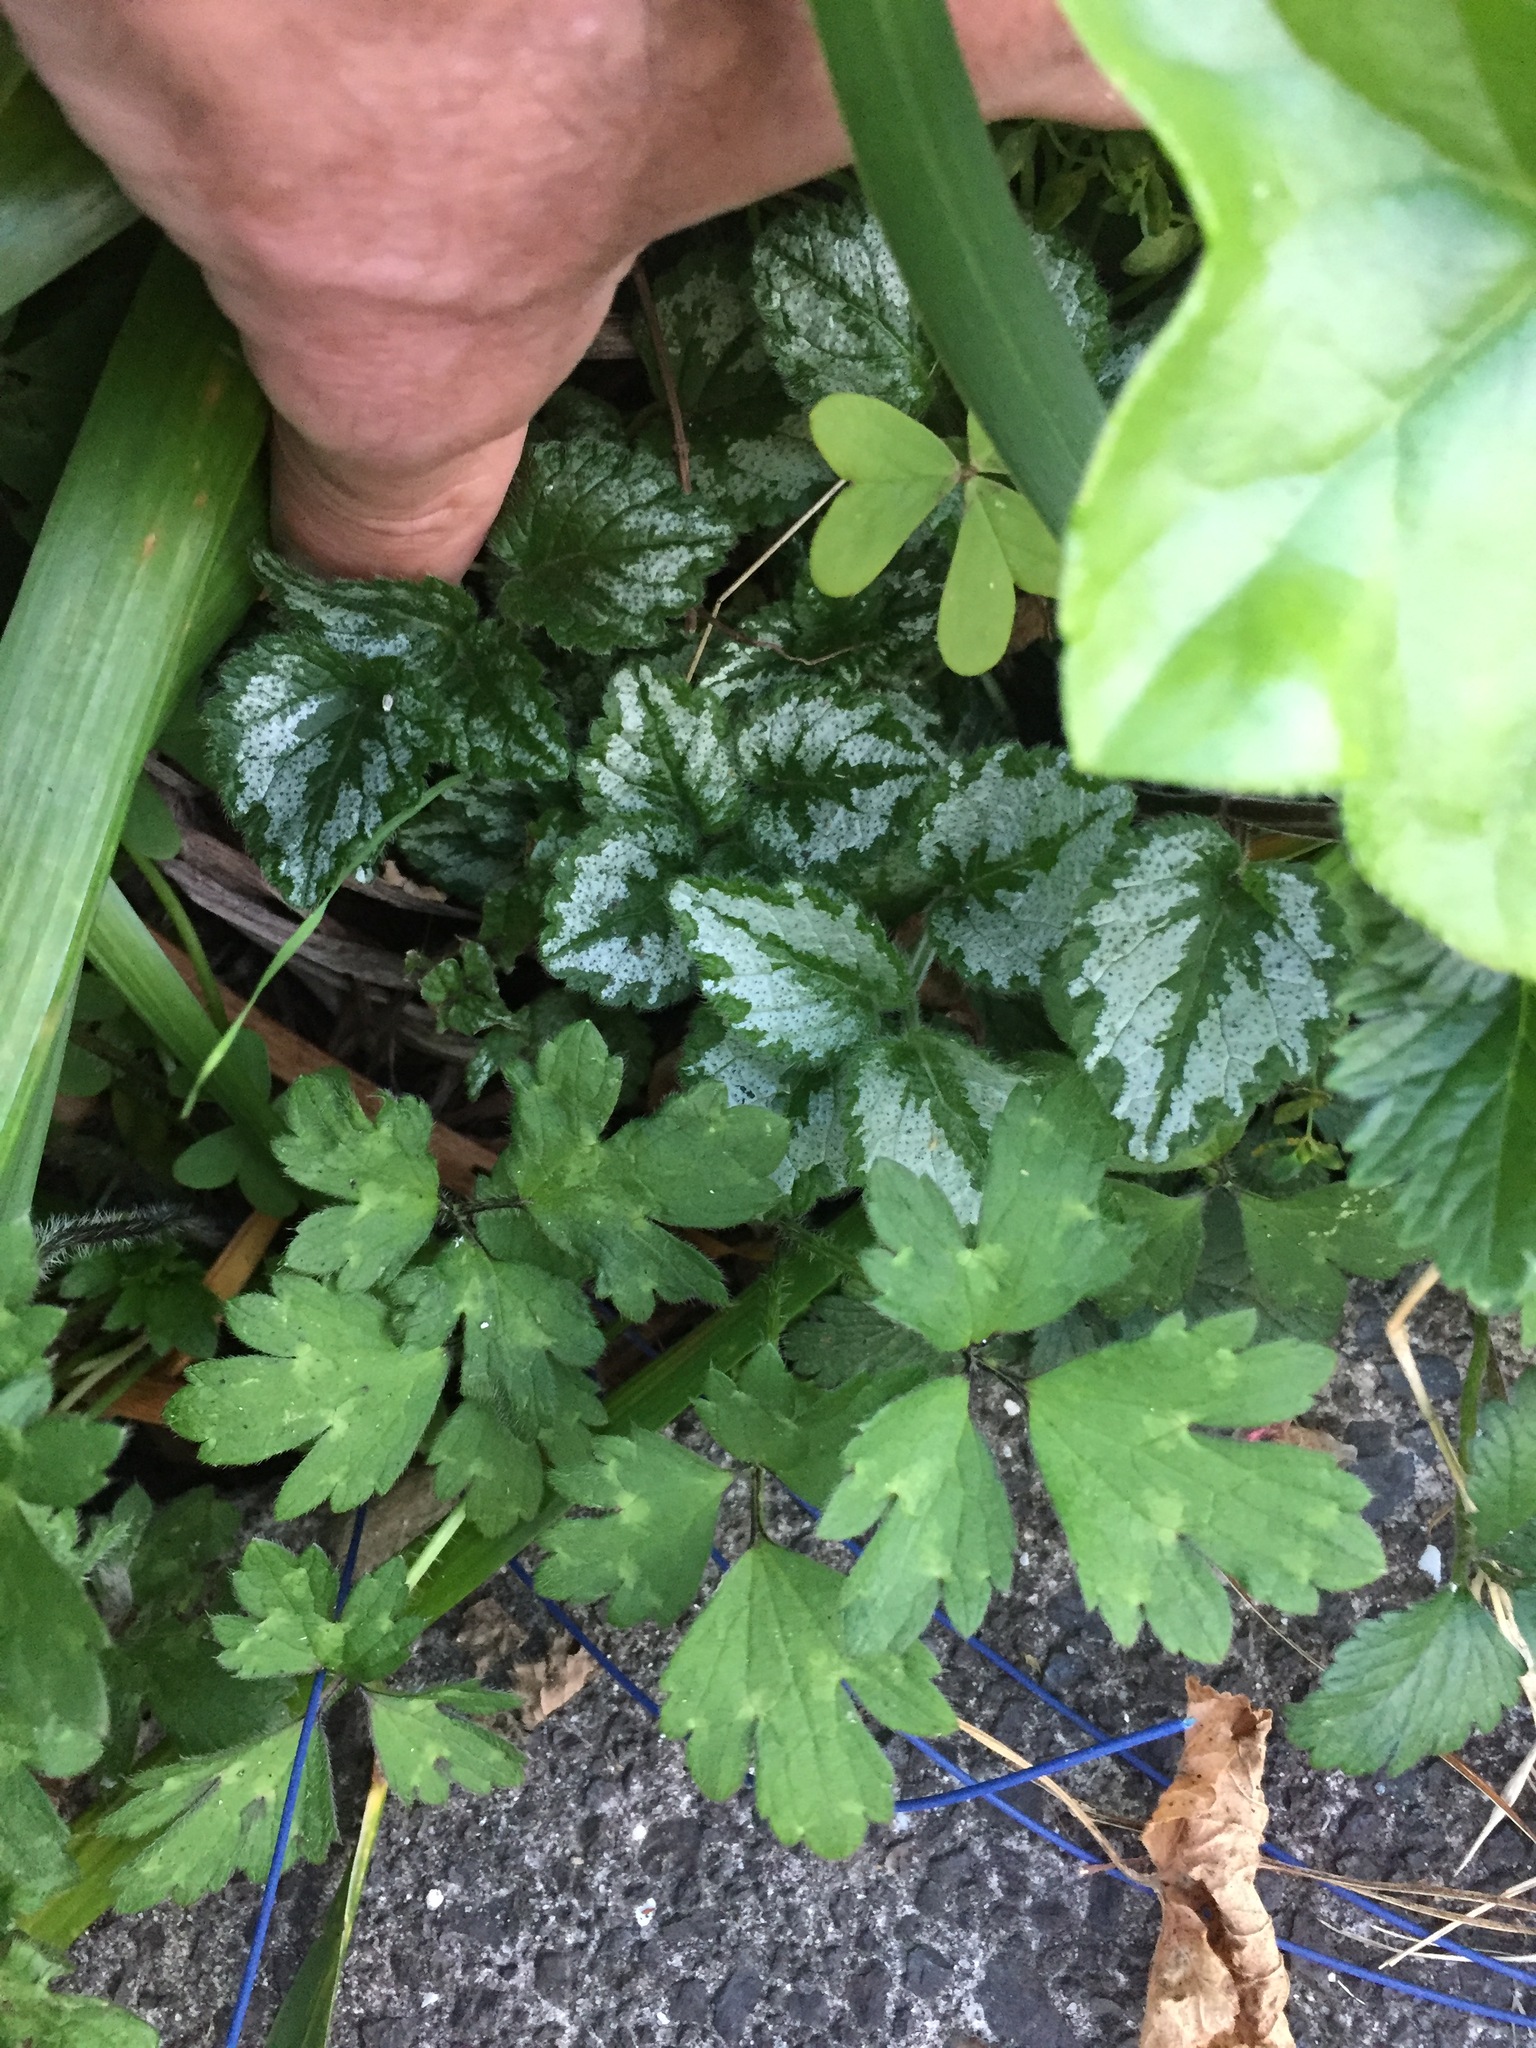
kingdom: Plantae
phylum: Tracheophyta
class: Magnoliopsida
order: Lamiales
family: Lamiaceae
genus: Lamium
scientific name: Lamium galeobdolon
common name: Yellow archangel
